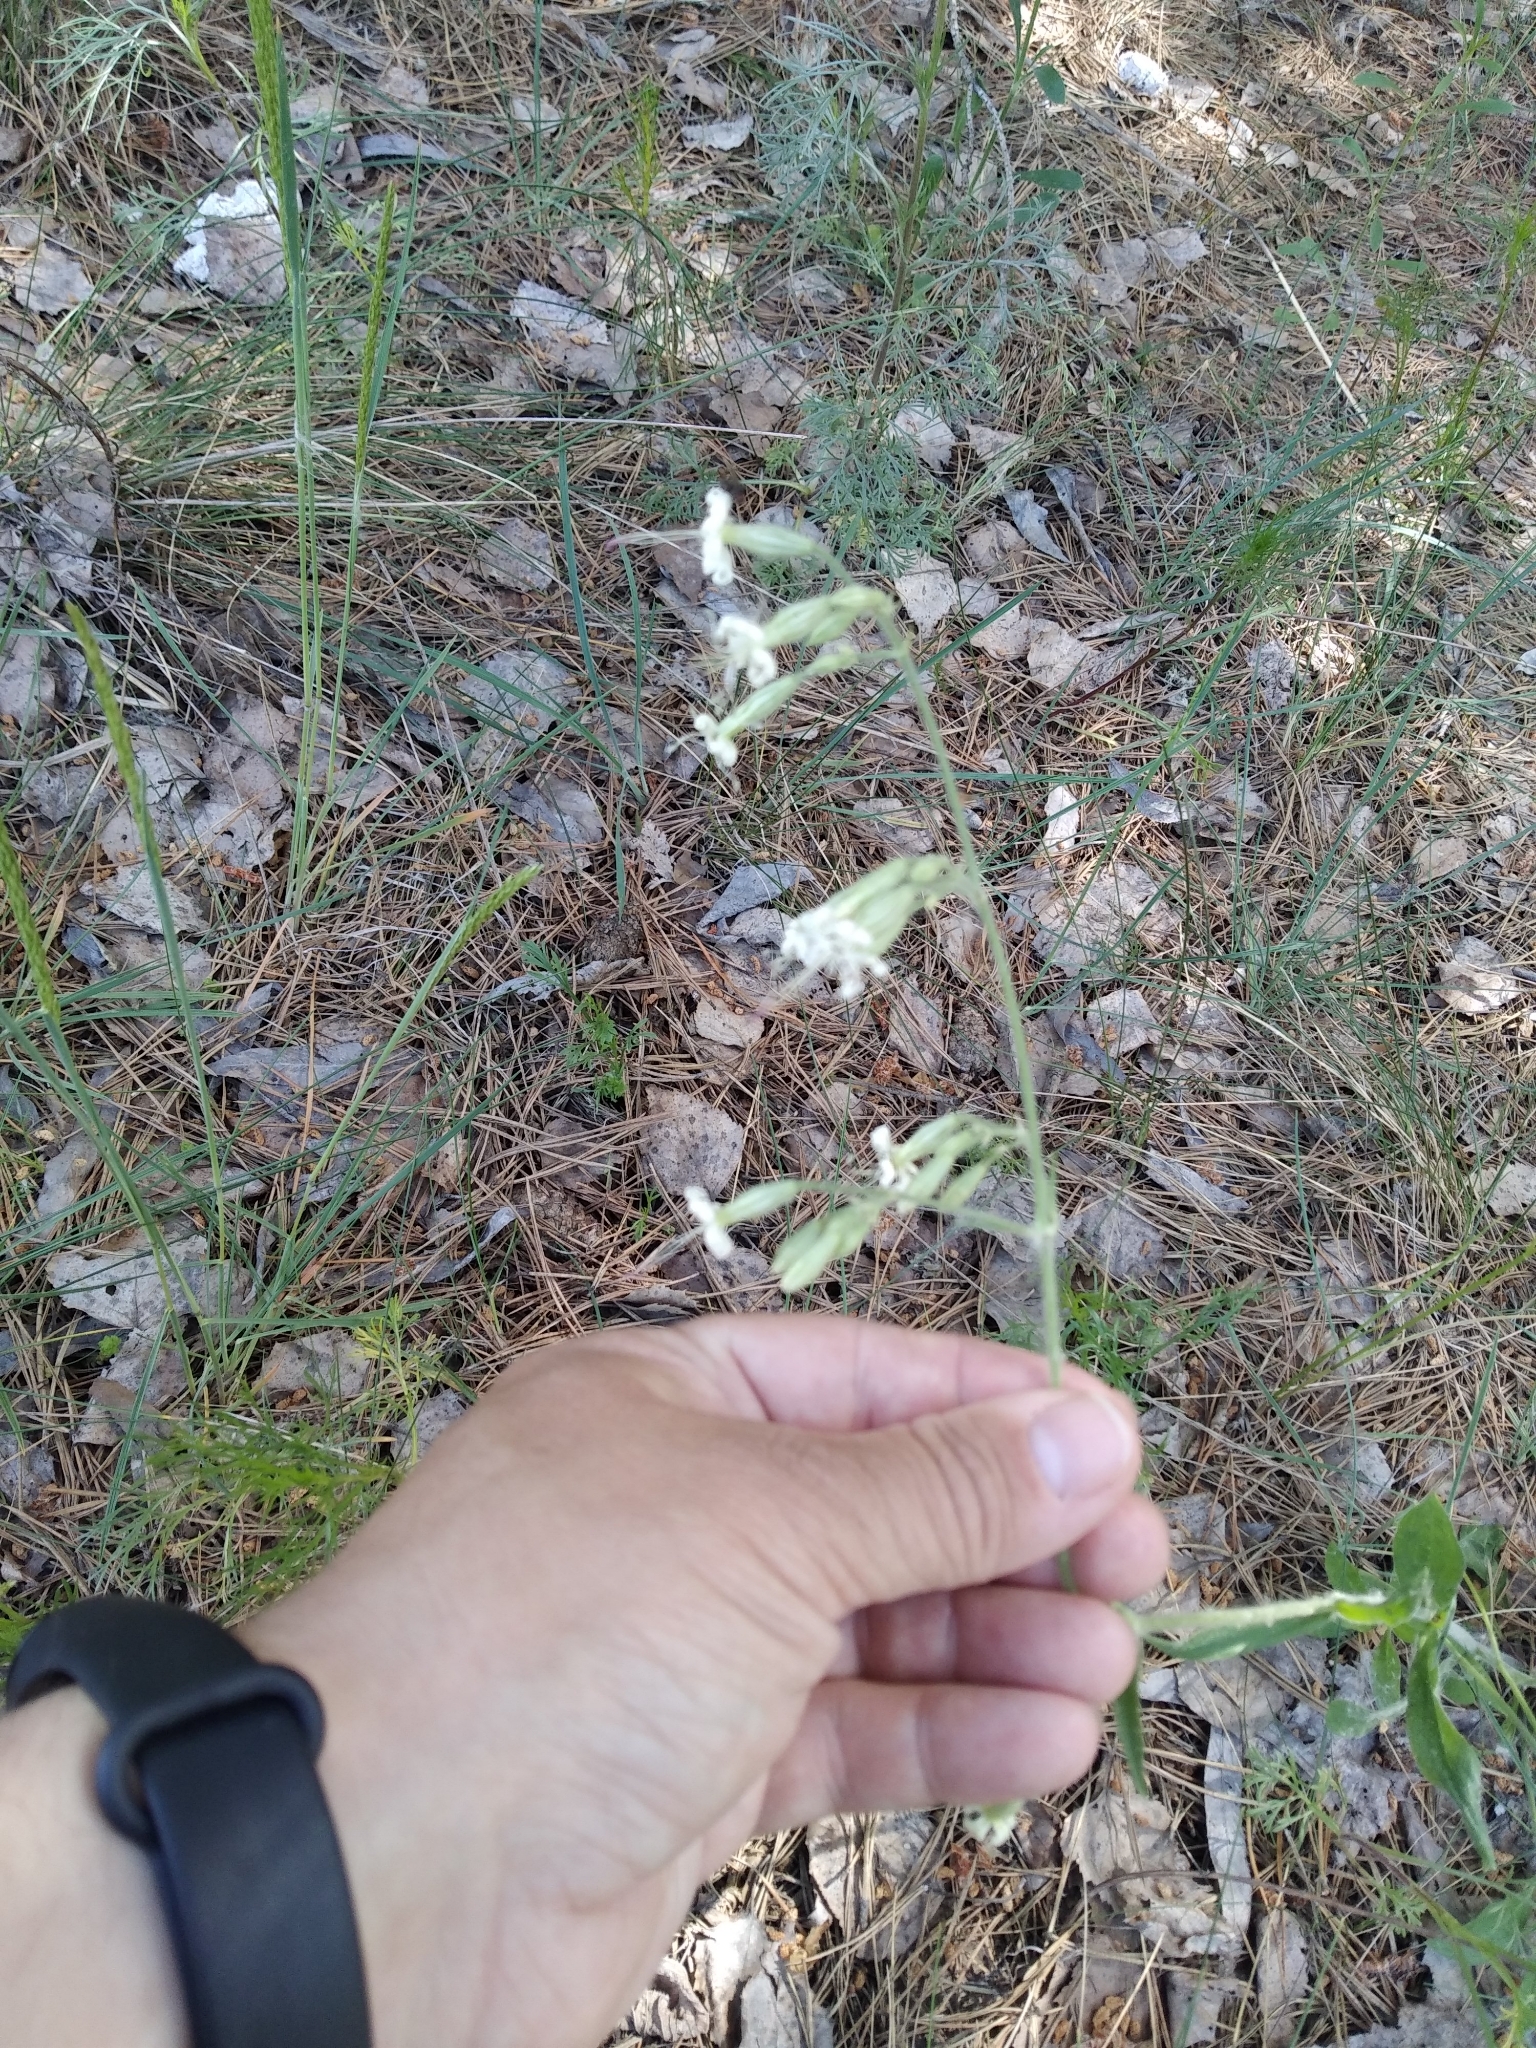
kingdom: Plantae
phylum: Tracheophyta
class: Magnoliopsida
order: Caryophyllales
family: Caryophyllaceae
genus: Silene
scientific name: Silene nutans
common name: Nottingham catchfly
